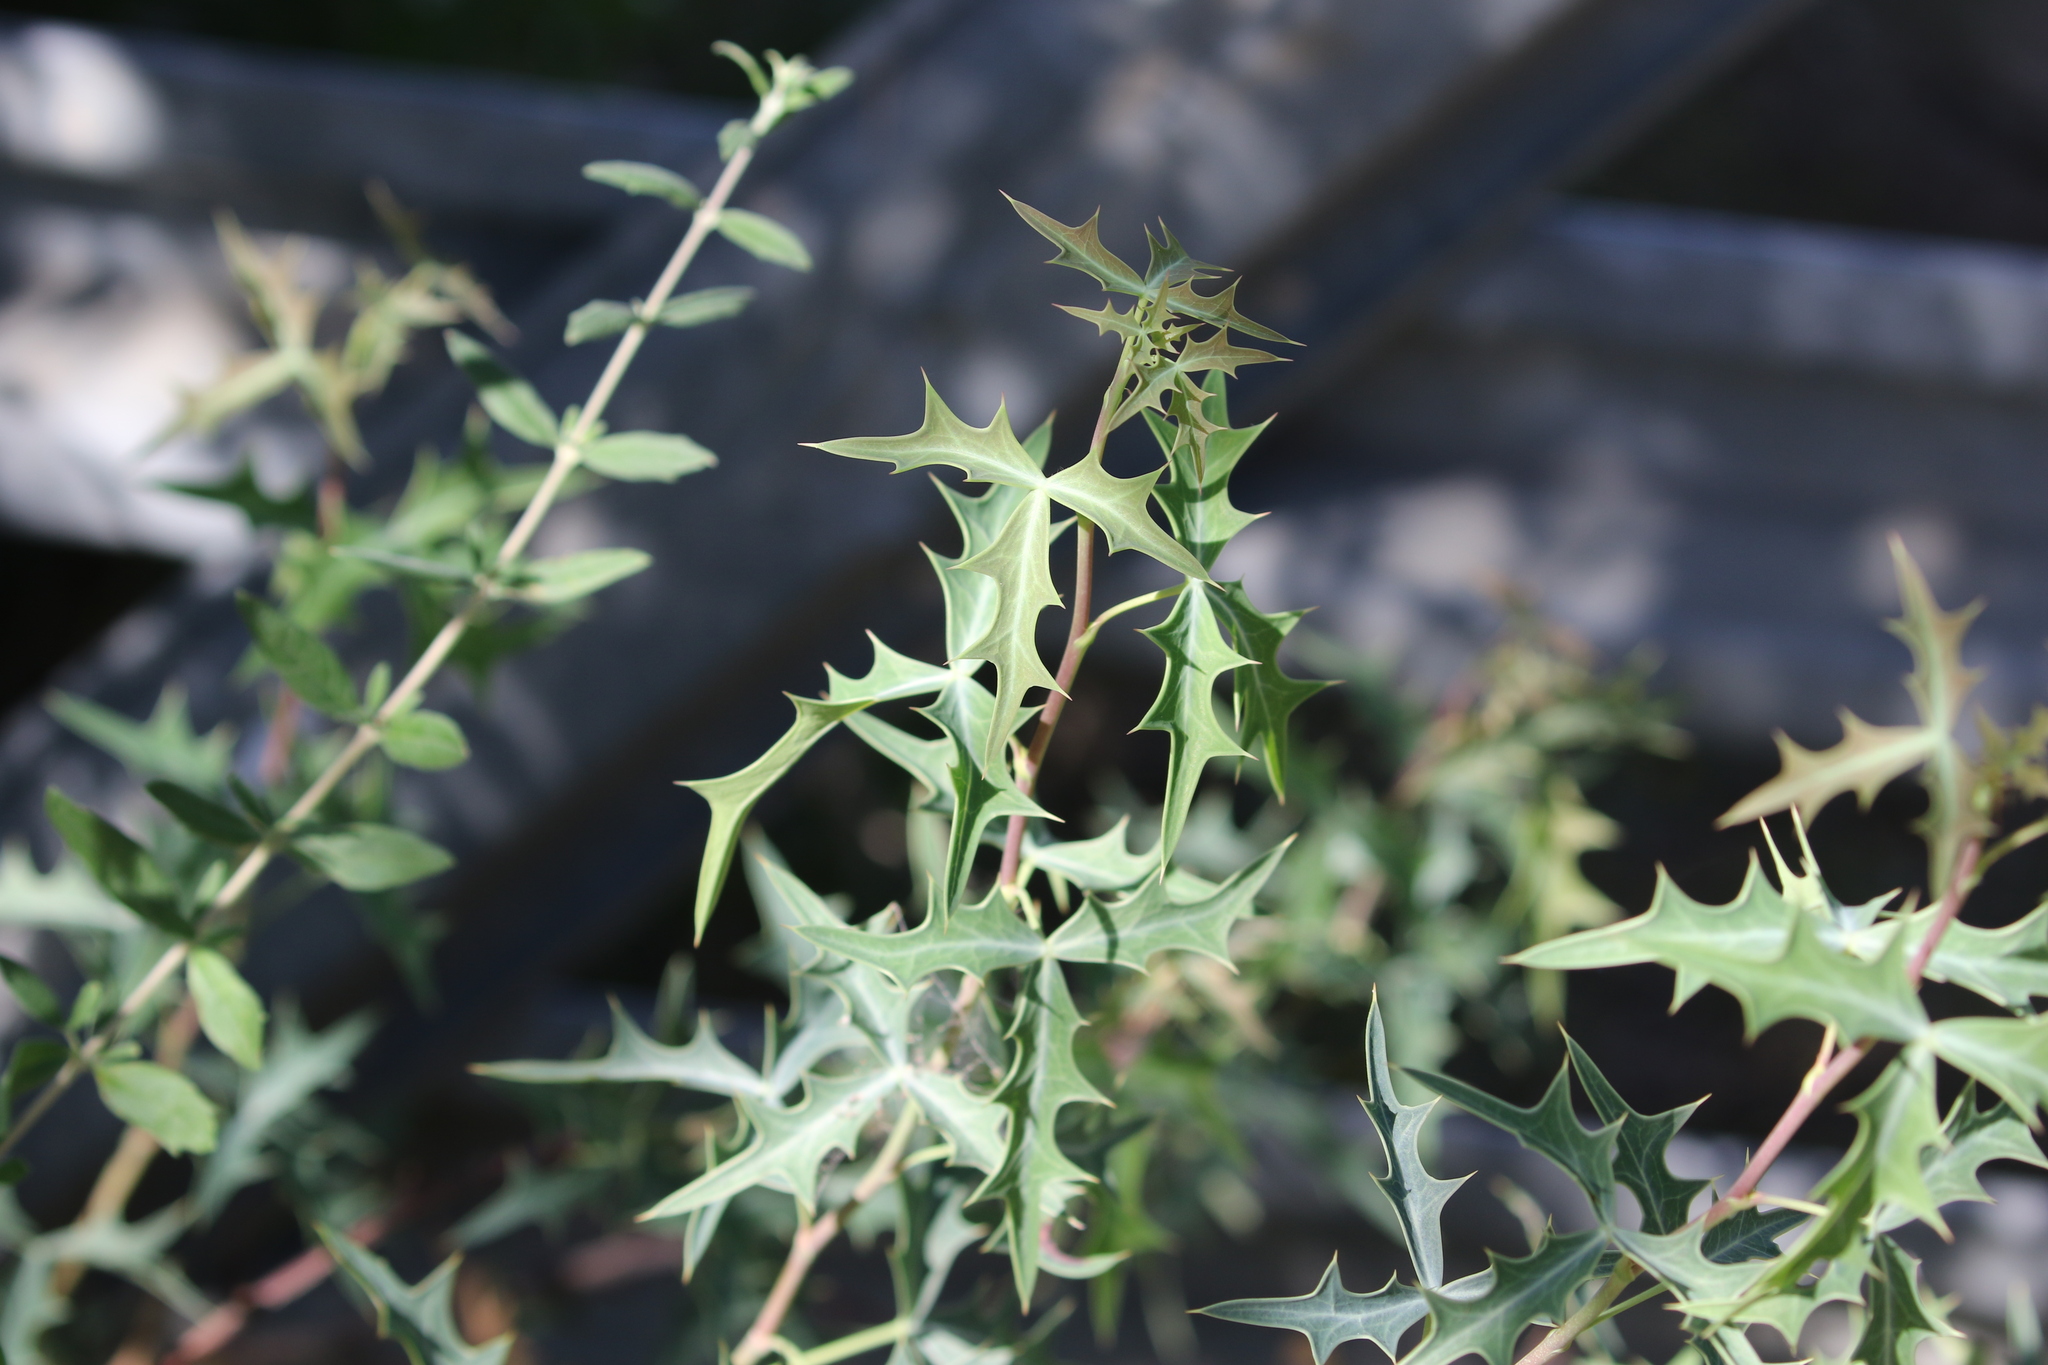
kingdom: Plantae
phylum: Tracheophyta
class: Magnoliopsida
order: Ranunculales
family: Berberidaceae
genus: Alloberberis
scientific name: Alloberberis trifoliolata
